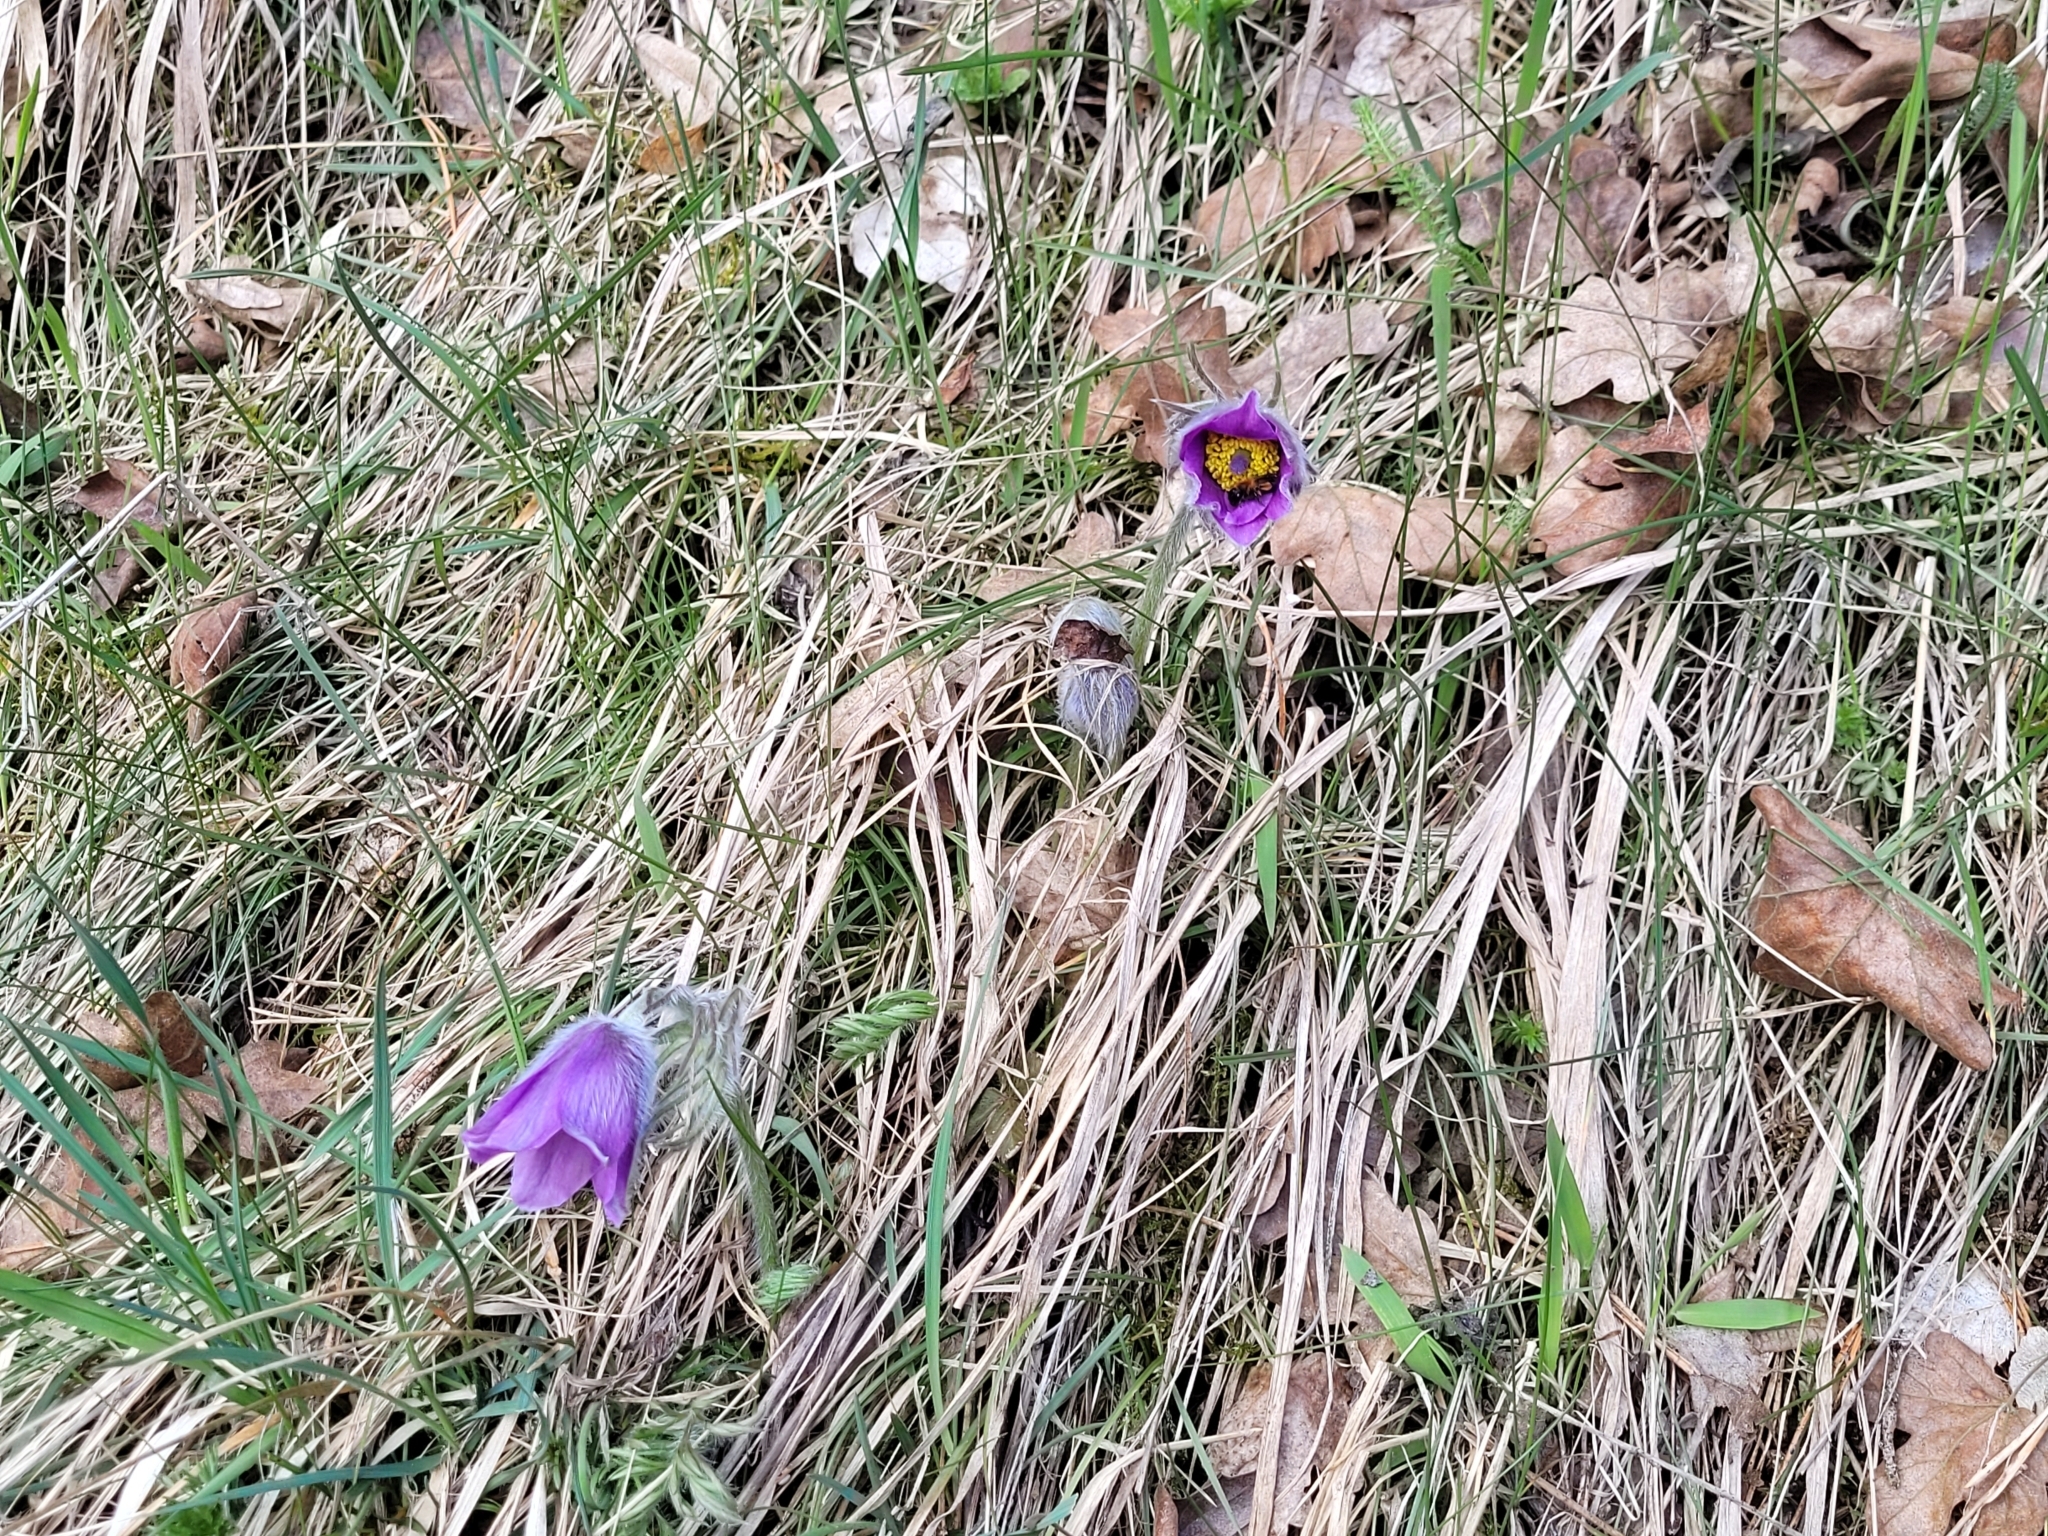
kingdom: Plantae
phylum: Tracheophyta
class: Magnoliopsida
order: Ranunculales
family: Ranunculaceae
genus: Pulsatilla
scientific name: Pulsatilla vulgaris
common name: Pasqueflower
